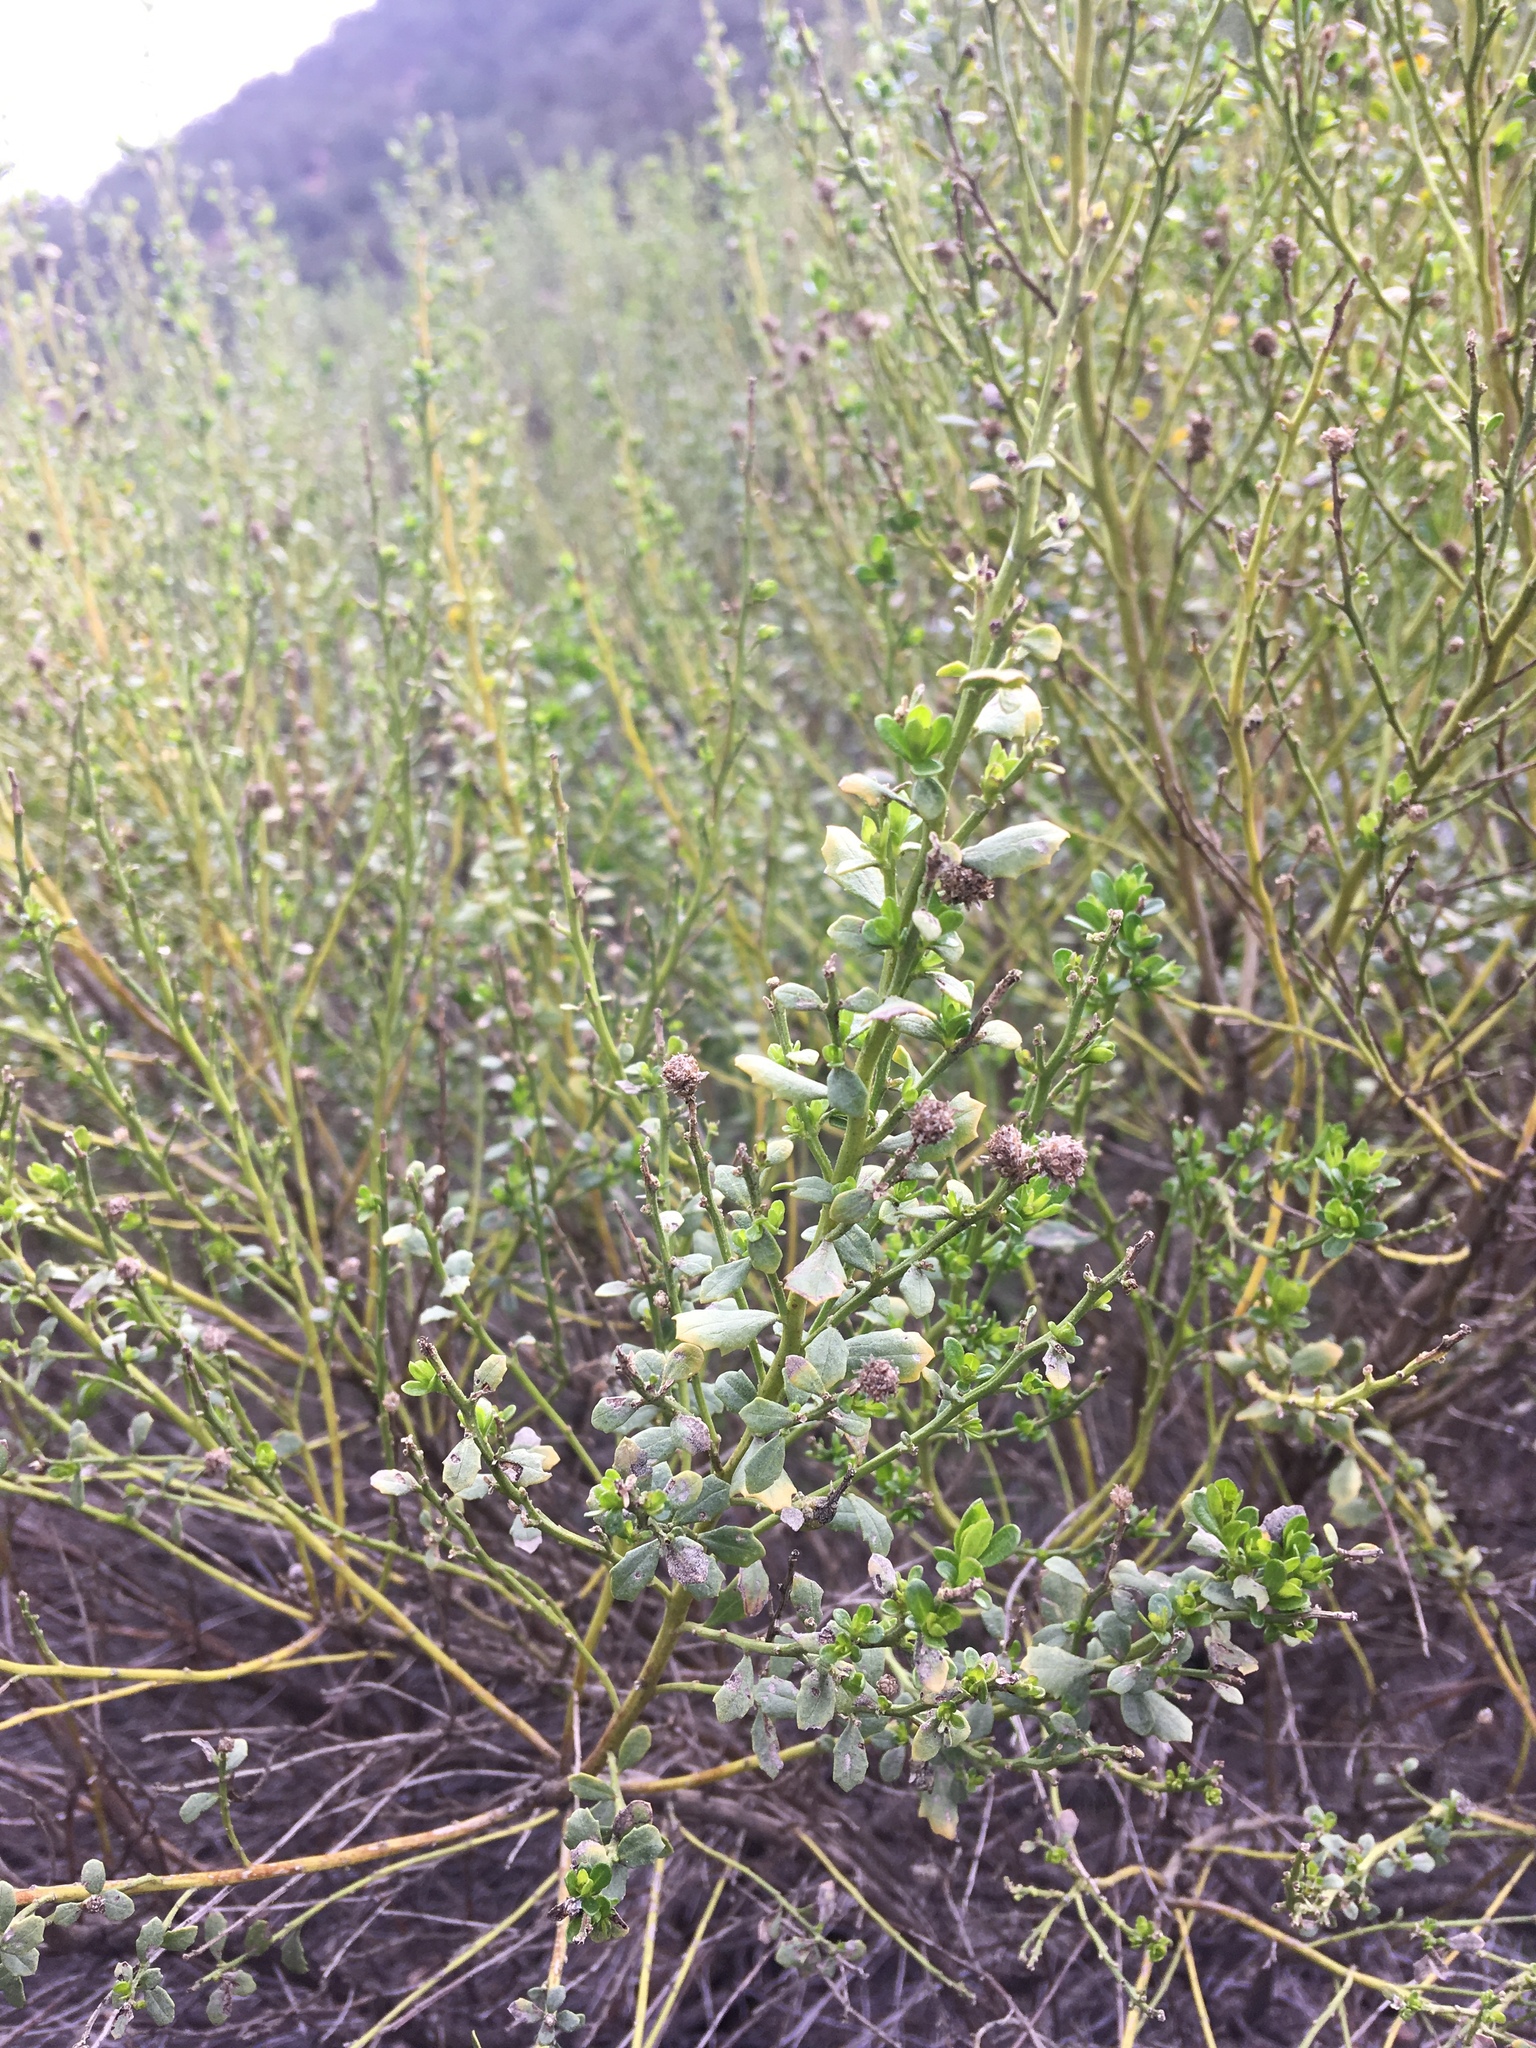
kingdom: Plantae
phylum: Tracheophyta
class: Magnoliopsida
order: Asterales
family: Asteraceae
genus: Baccharis
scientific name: Baccharis pilularis
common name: Coyotebrush
